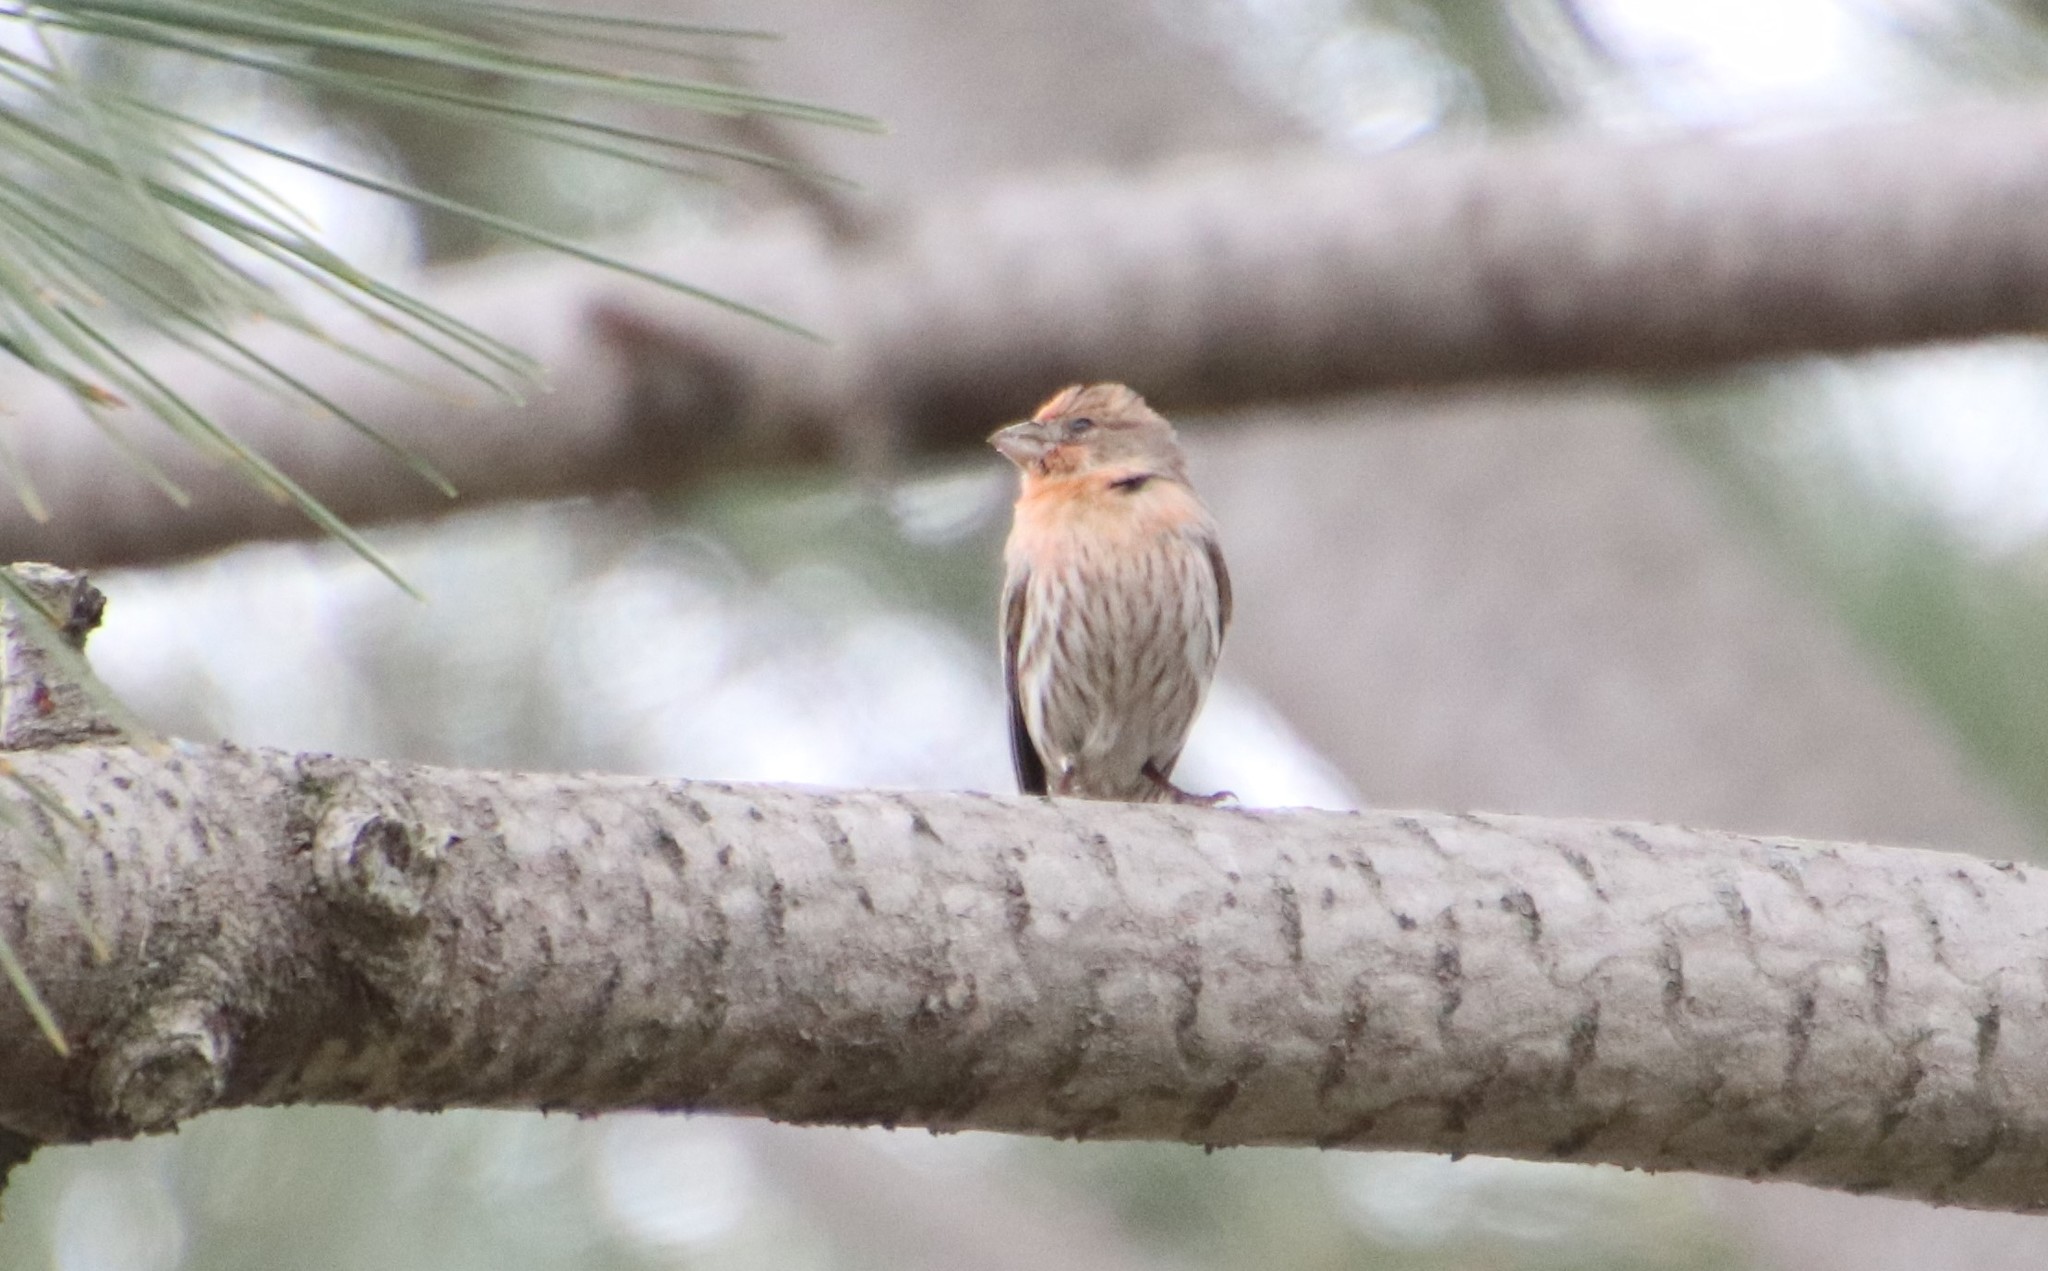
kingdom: Animalia
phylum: Chordata
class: Aves
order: Passeriformes
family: Fringillidae
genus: Haemorhous
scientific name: Haemorhous mexicanus
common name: House finch
